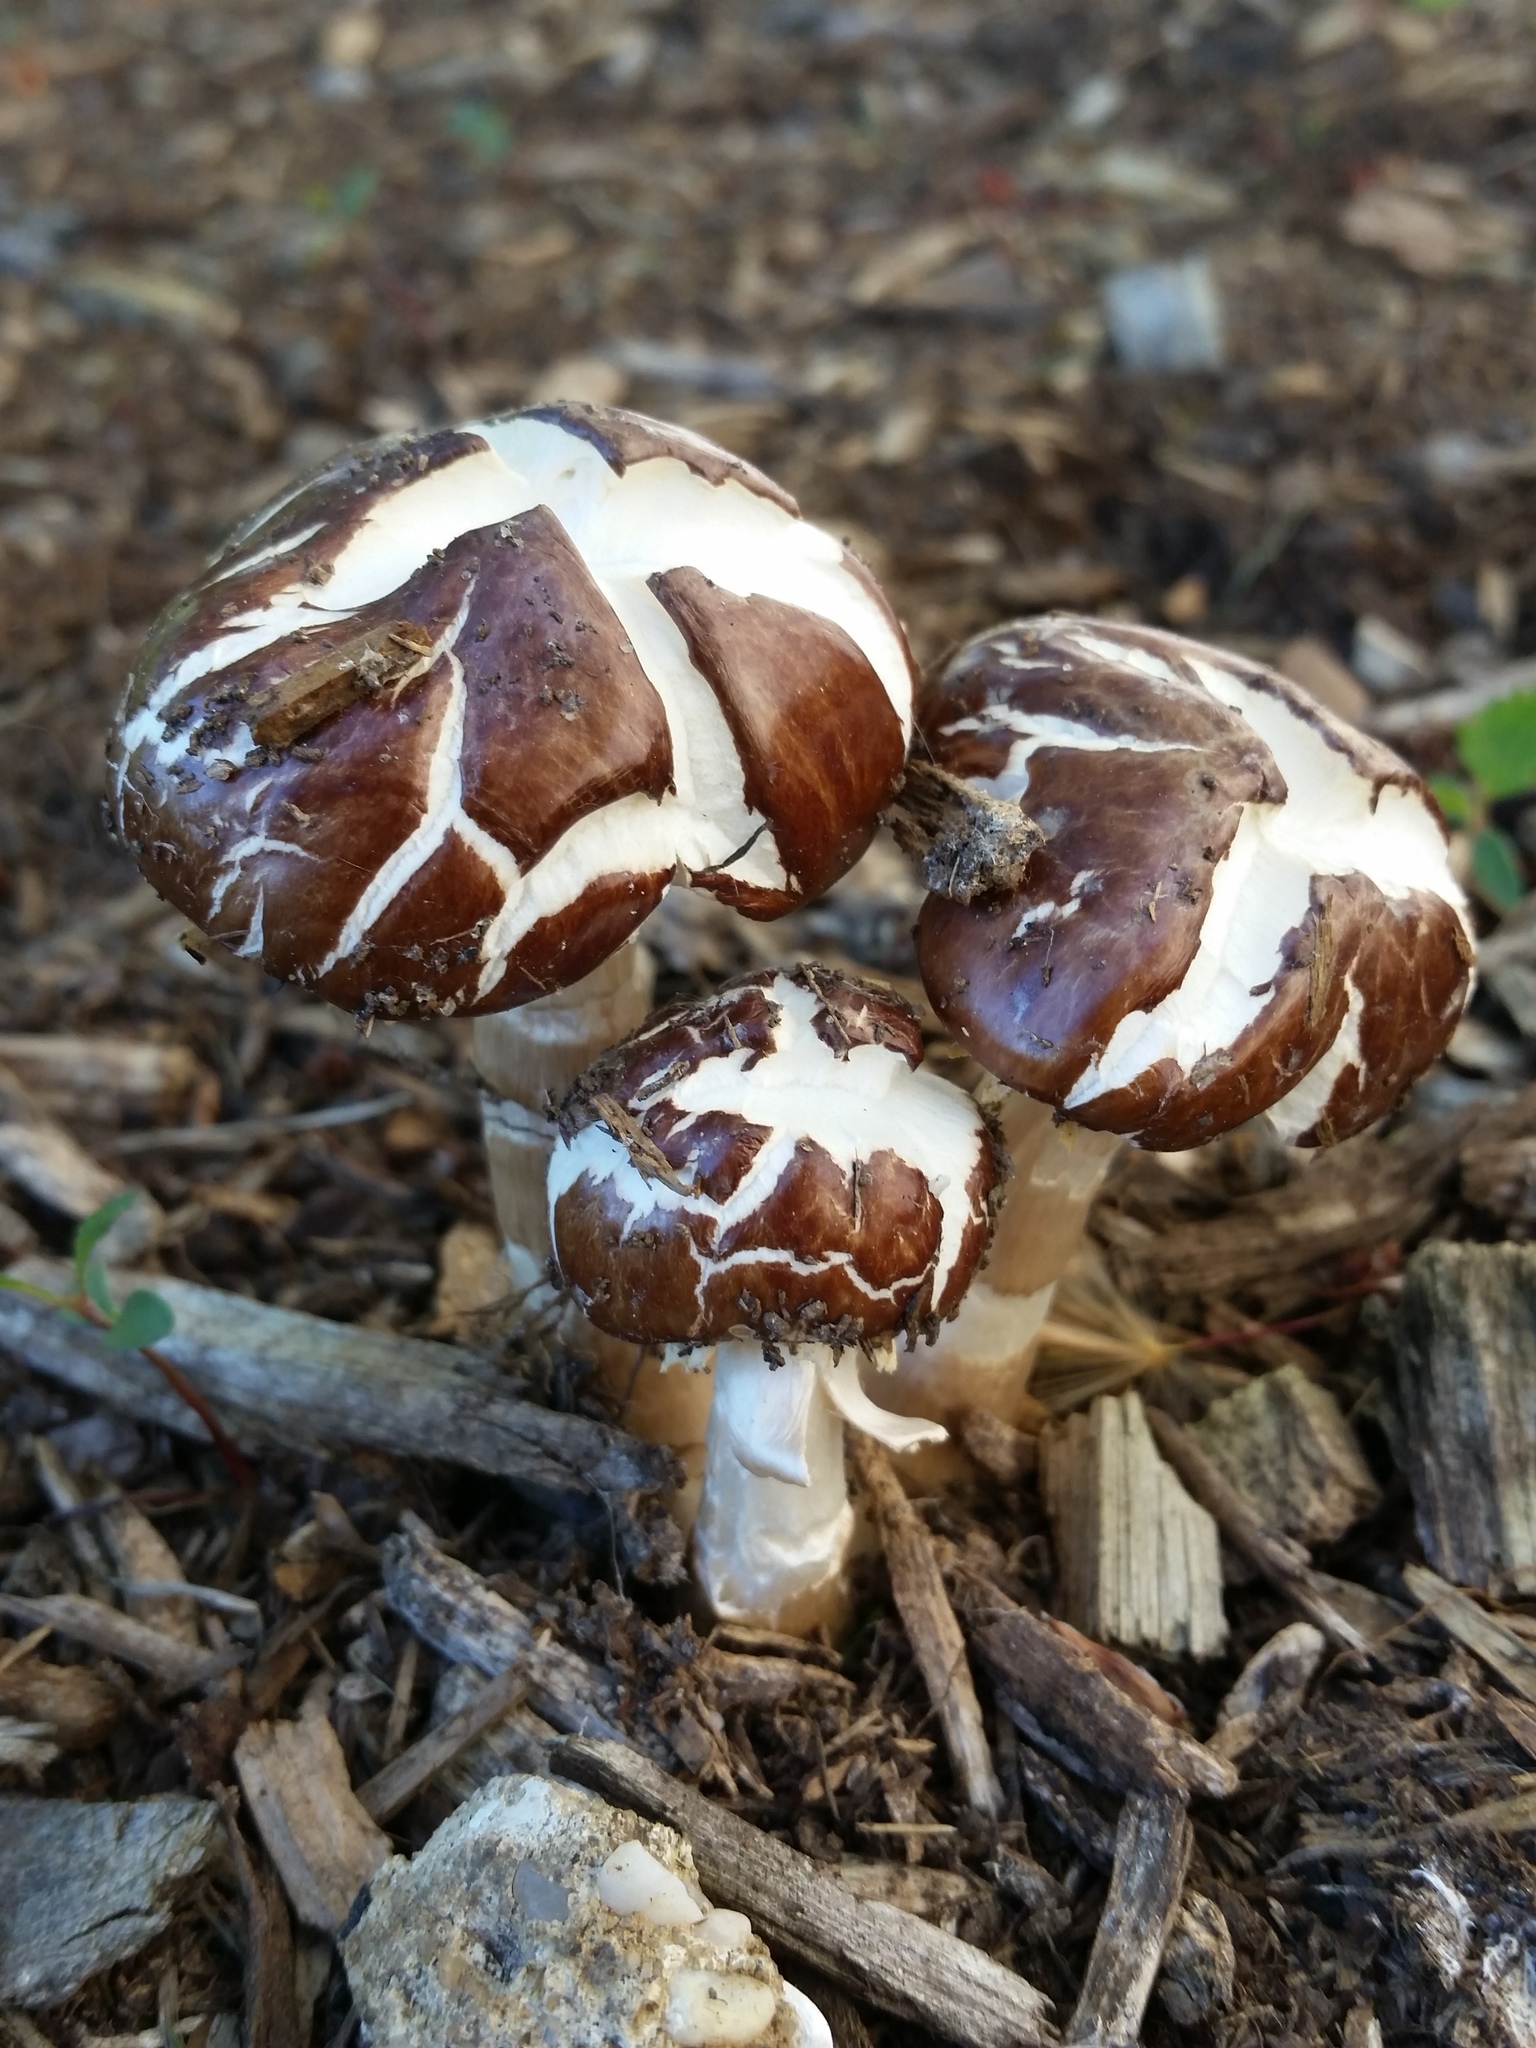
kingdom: Fungi
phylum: Basidiomycota
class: Agaricomycetes
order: Agaricales
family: Strophariaceae
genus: Stropharia
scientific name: Stropharia rugosoannulata
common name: Wine roundhead
